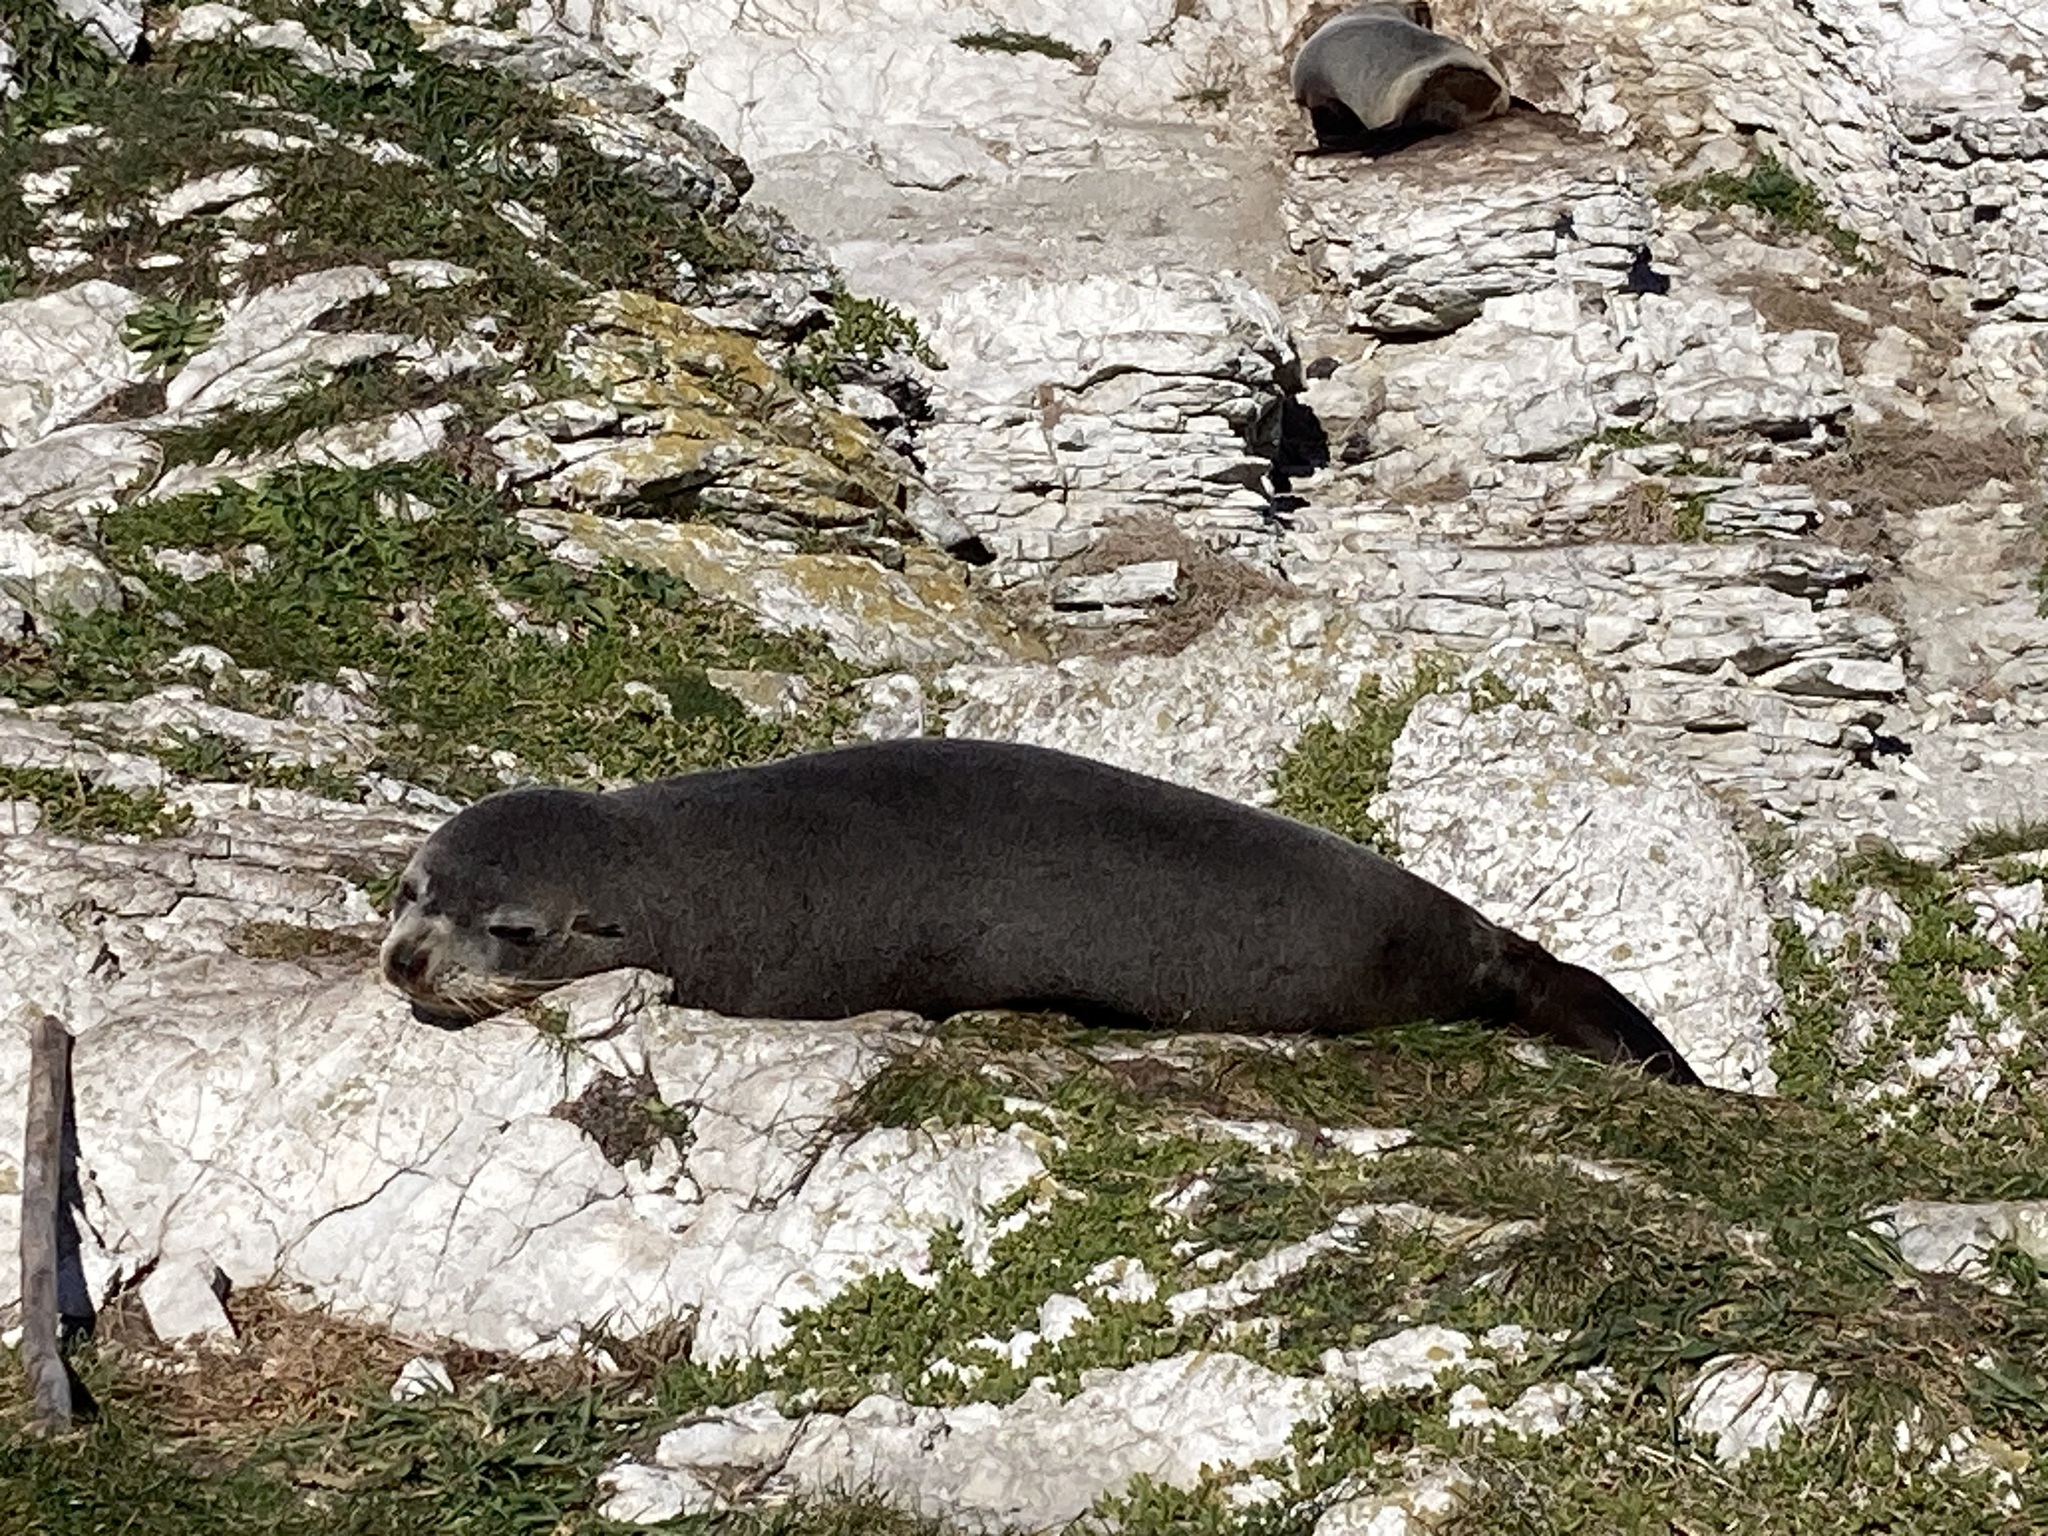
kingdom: Animalia
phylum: Chordata
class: Mammalia
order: Carnivora
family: Otariidae
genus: Arctocephalus
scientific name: Arctocephalus forsteri
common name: New zealand fur seal
